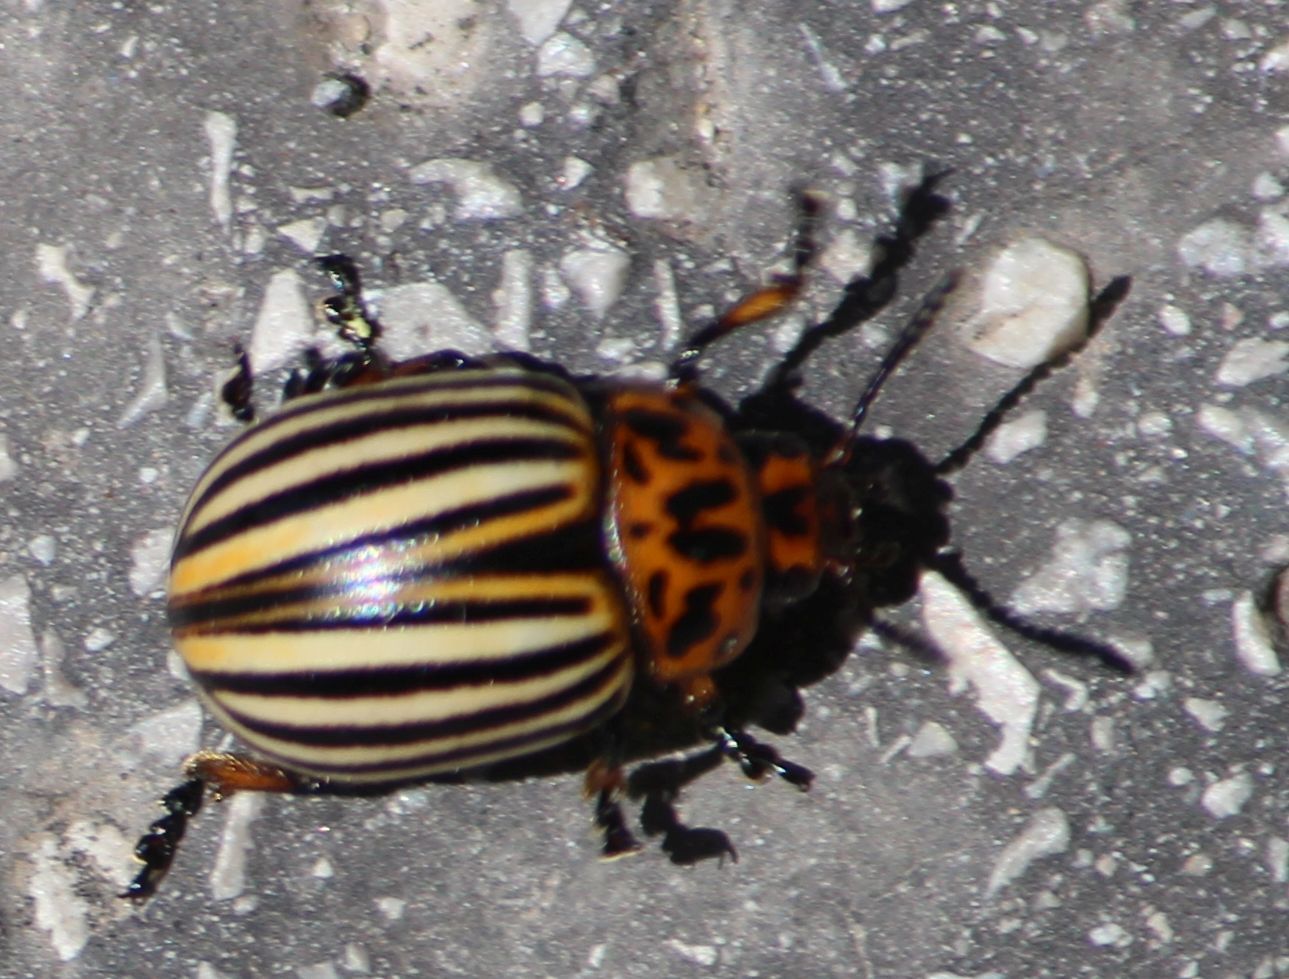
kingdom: Animalia
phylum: Arthropoda
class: Insecta
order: Coleoptera
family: Chrysomelidae
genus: Leptinotarsa
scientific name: Leptinotarsa decemlineata
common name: Colorado potato beetle
